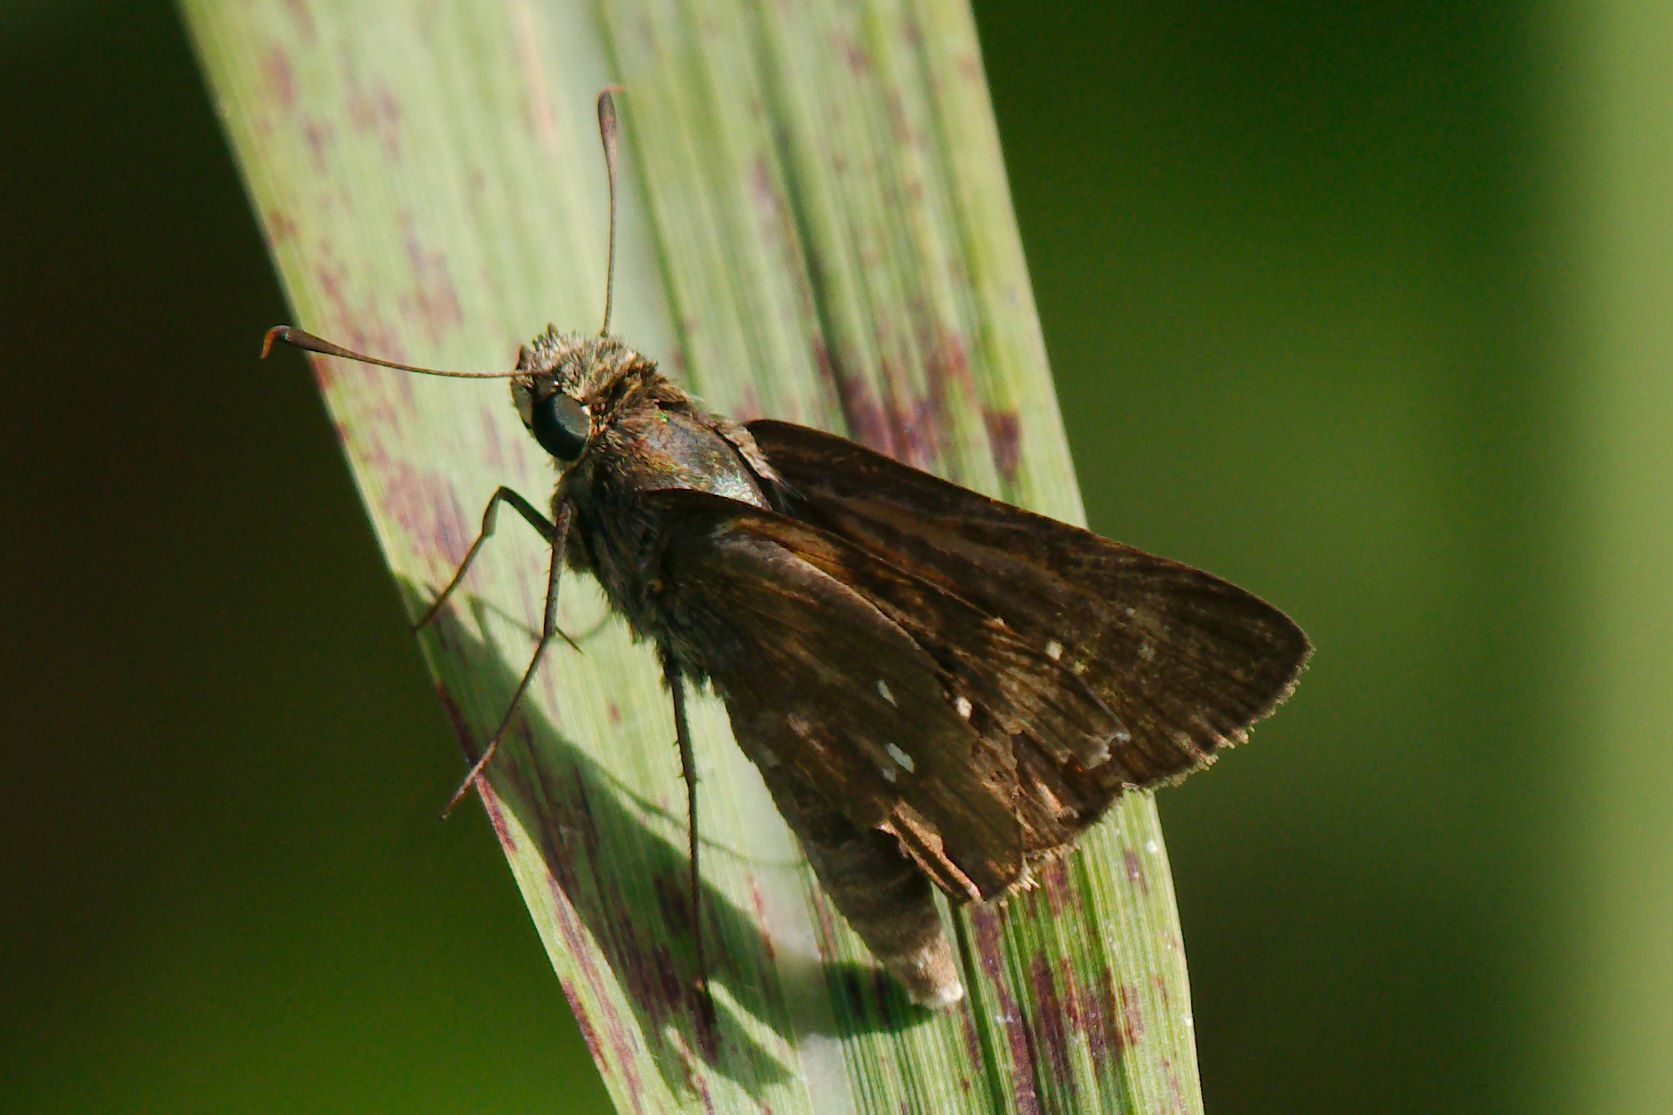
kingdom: Animalia
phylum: Arthropoda
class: Insecta
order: Lepidoptera
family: Hesperiidae
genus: Oligoria
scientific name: Oligoria maculata
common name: Twin-spot skipper
